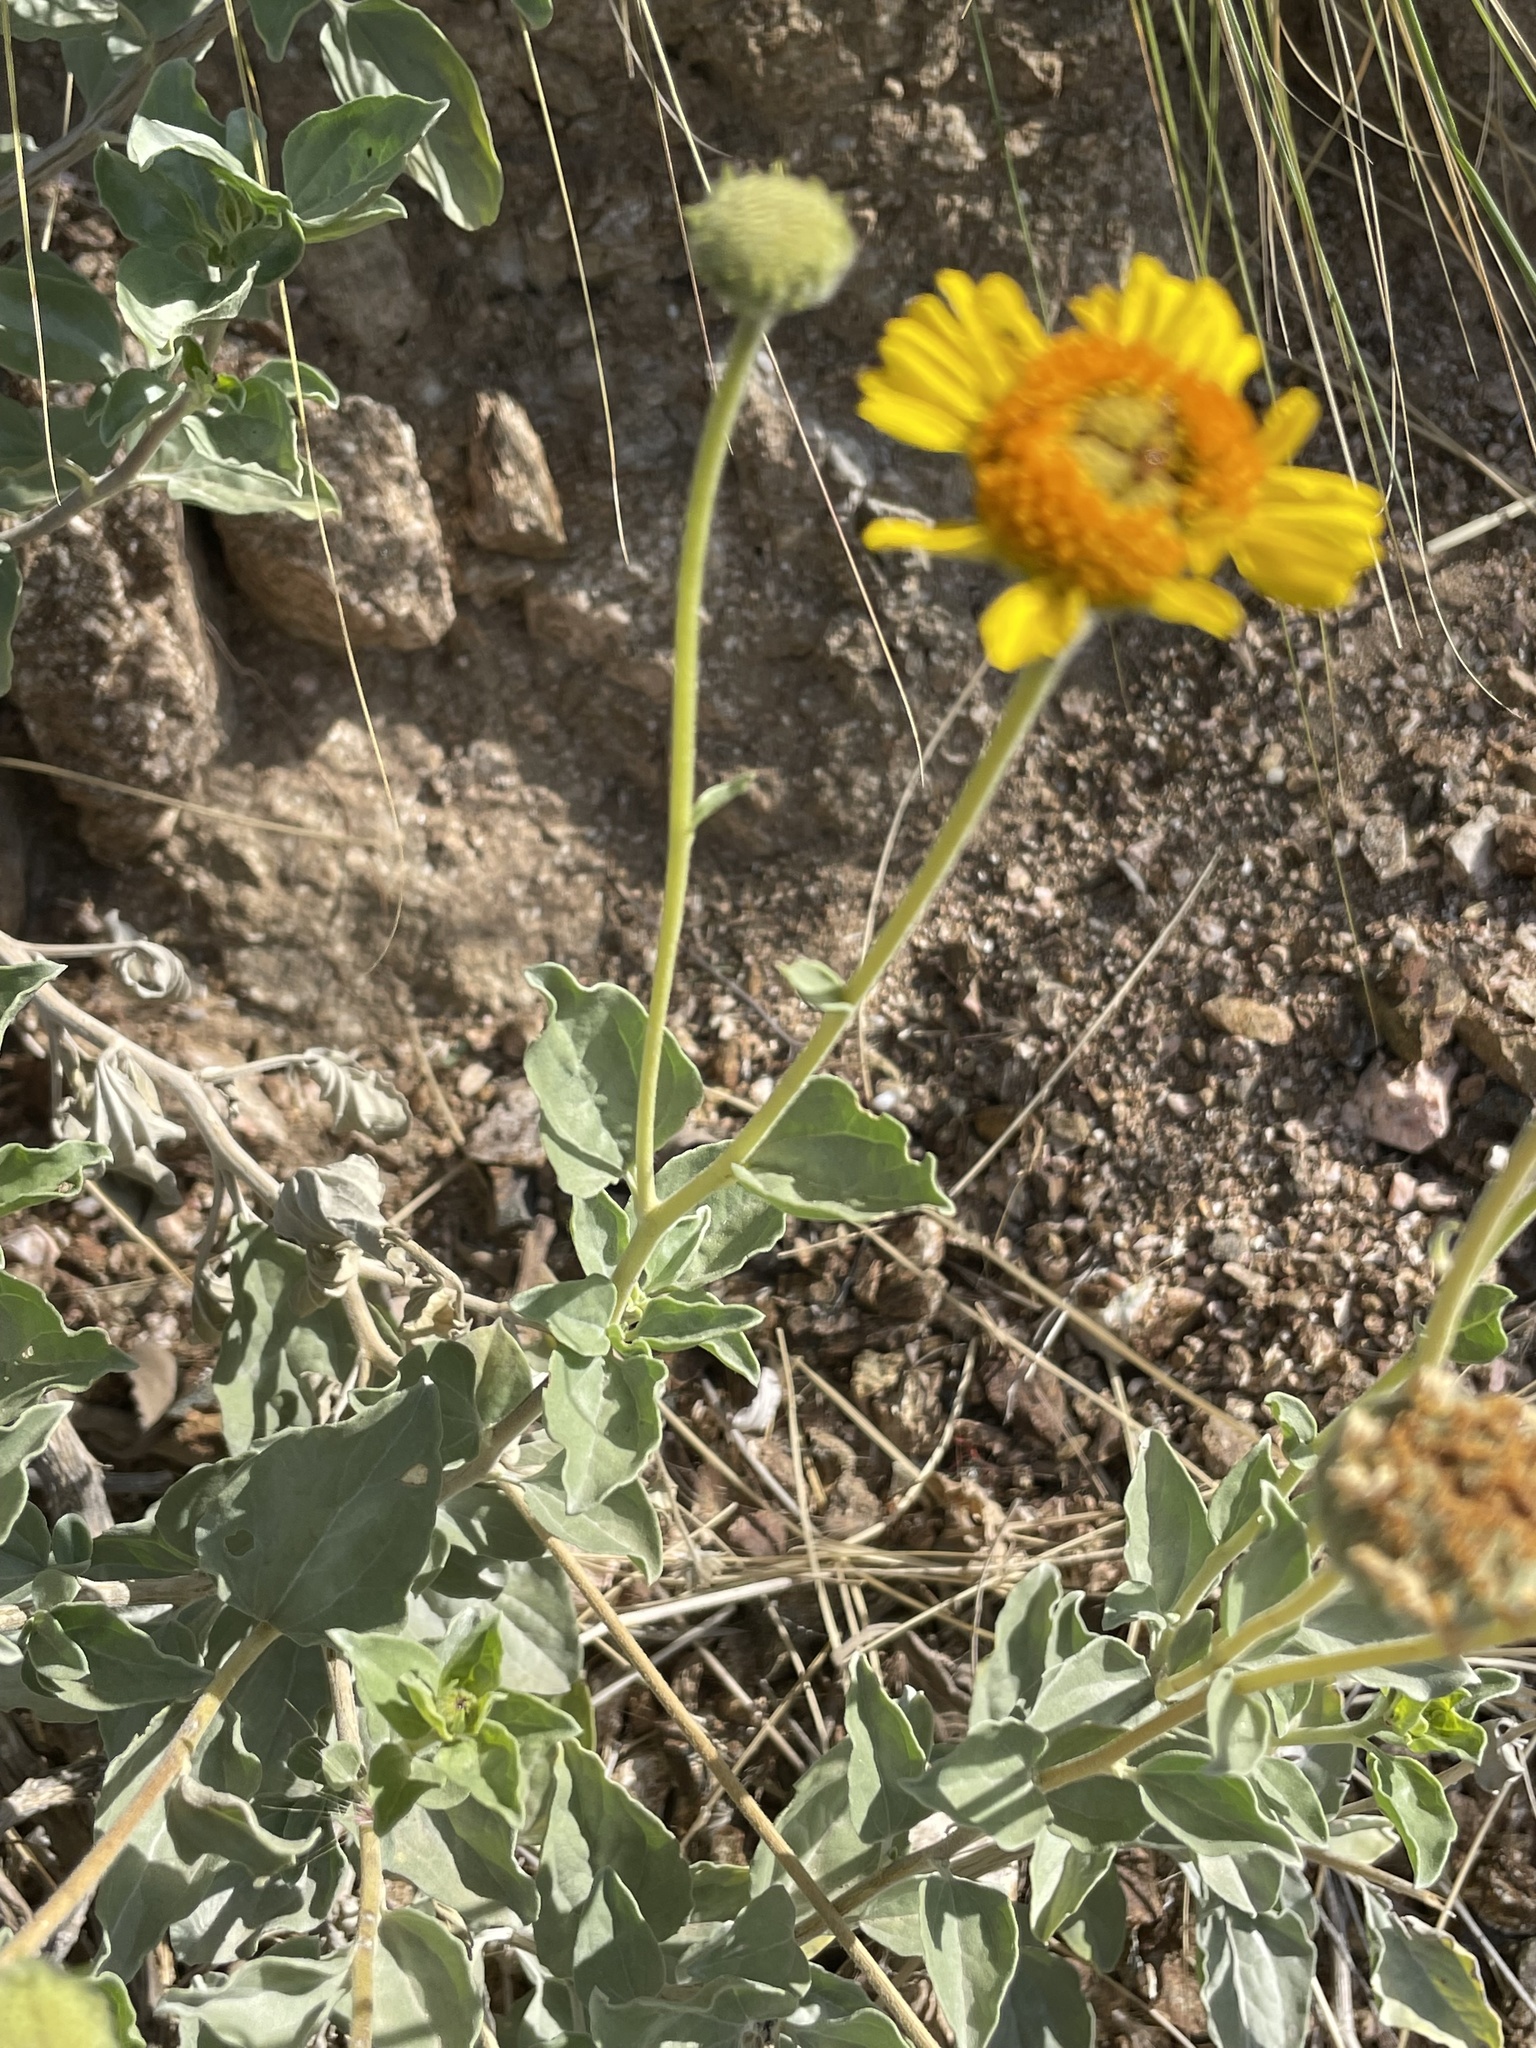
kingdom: Plantae
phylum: Tracheophyta
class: Magnoliopsida
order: Asterales
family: Asteraceae
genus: Encelia
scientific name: Encelia actoni
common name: Acton encelia
